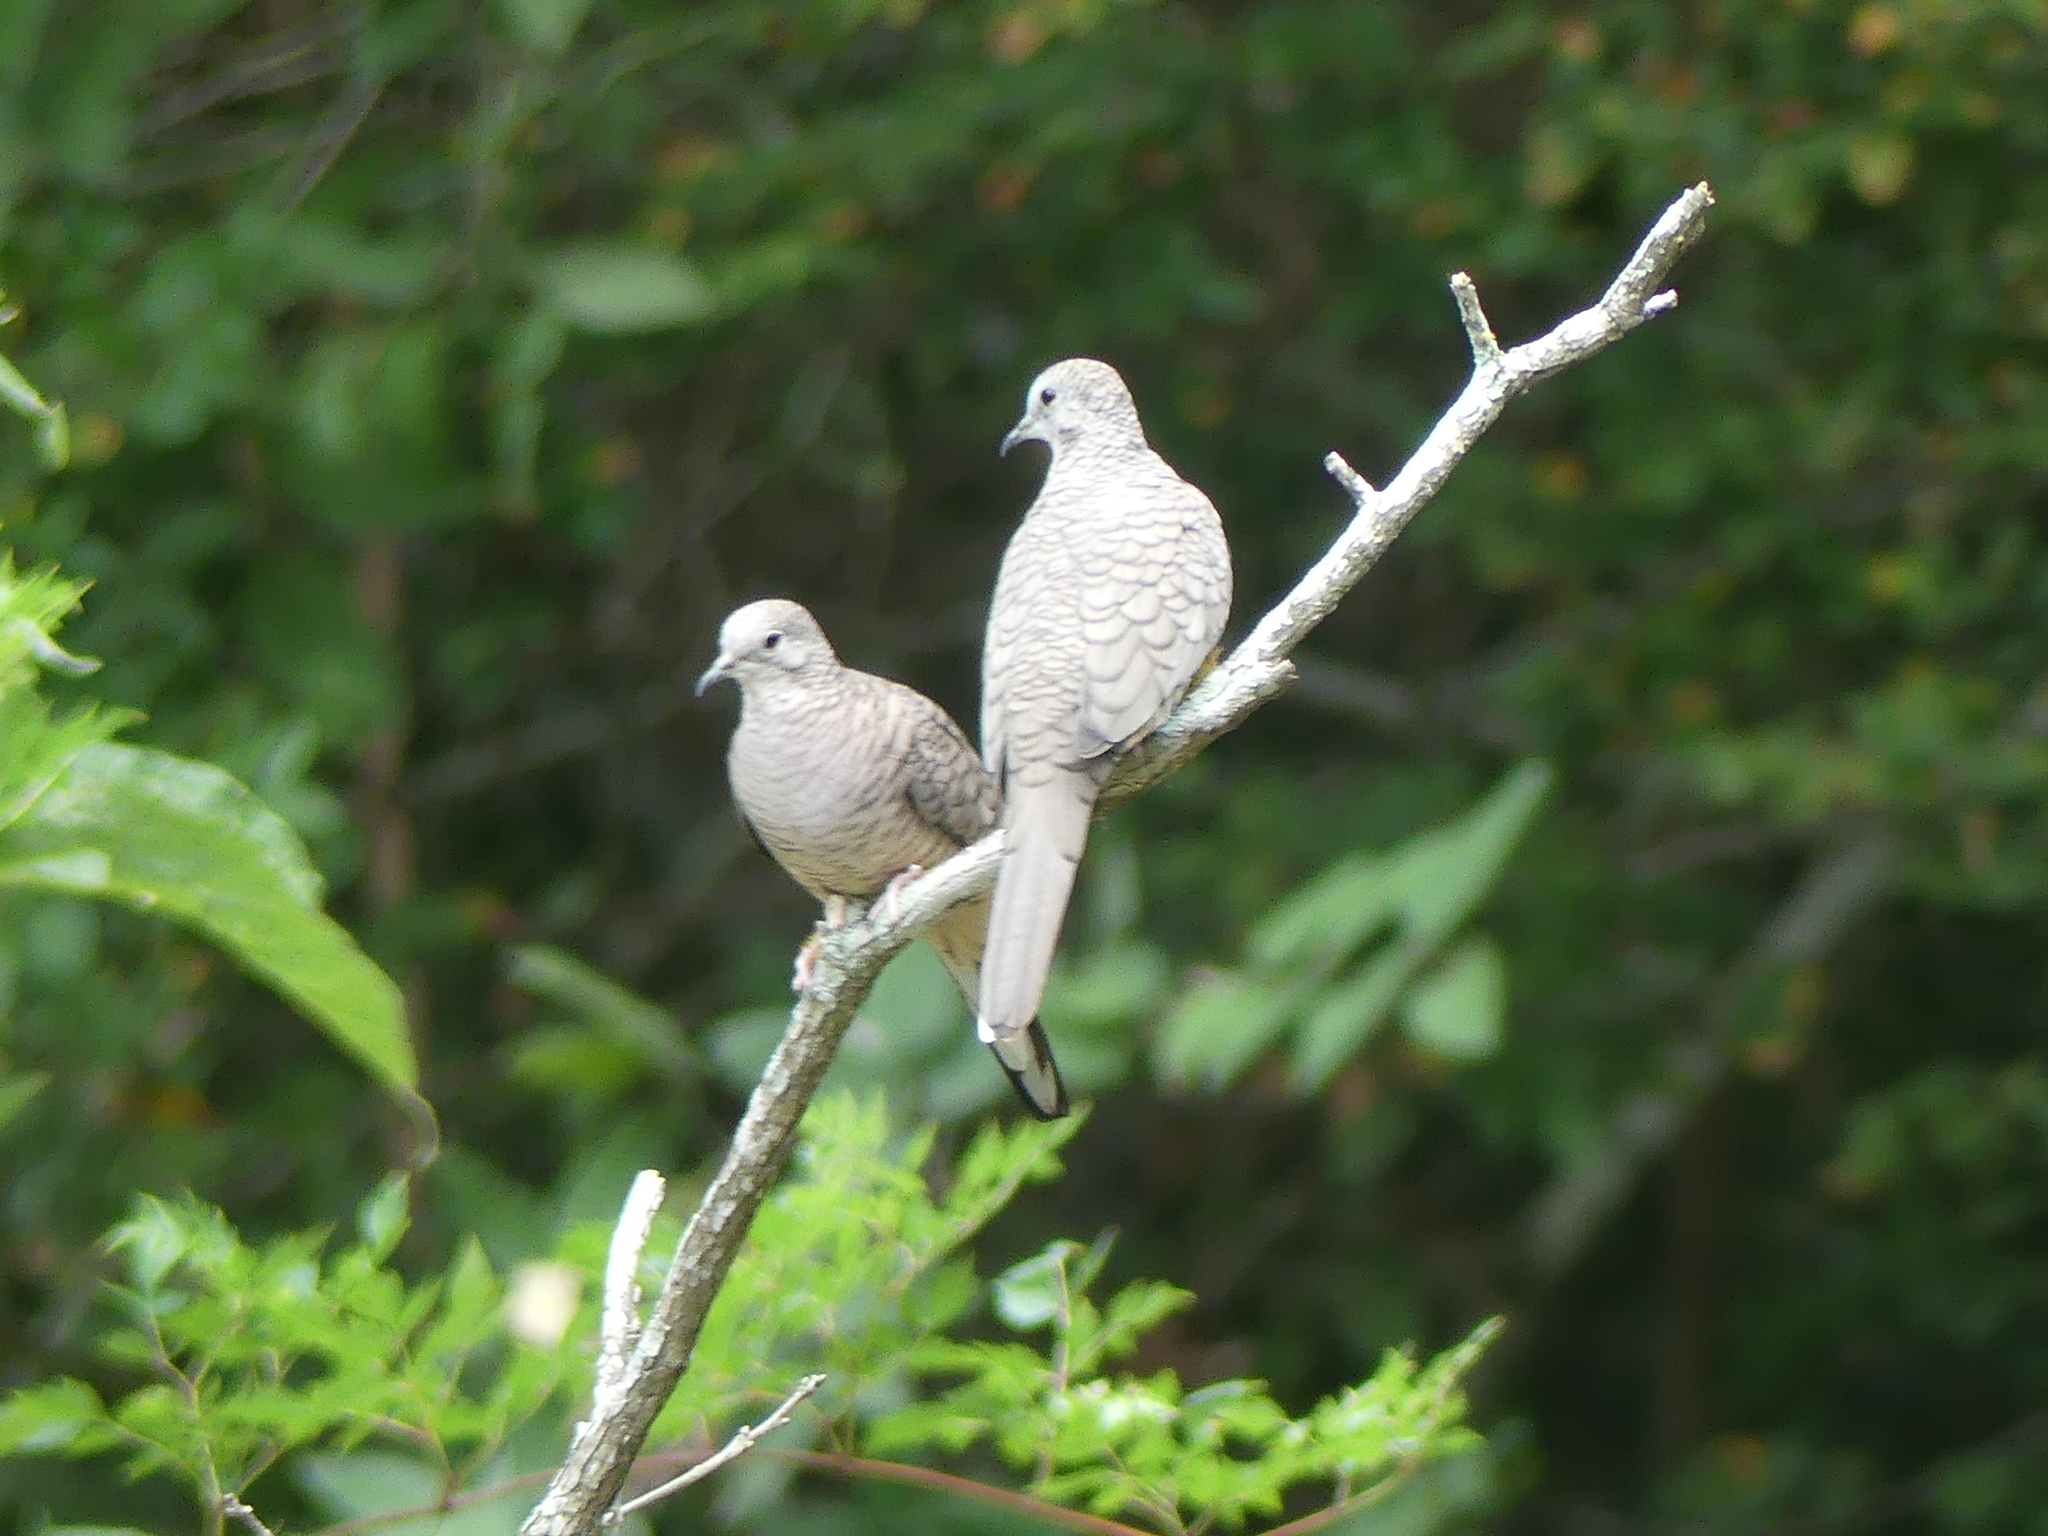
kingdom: Animalia
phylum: Chordata
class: Aves
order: Columbiformes
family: Columbidae
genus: Columbina
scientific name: Columbina inca
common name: Inca dove
